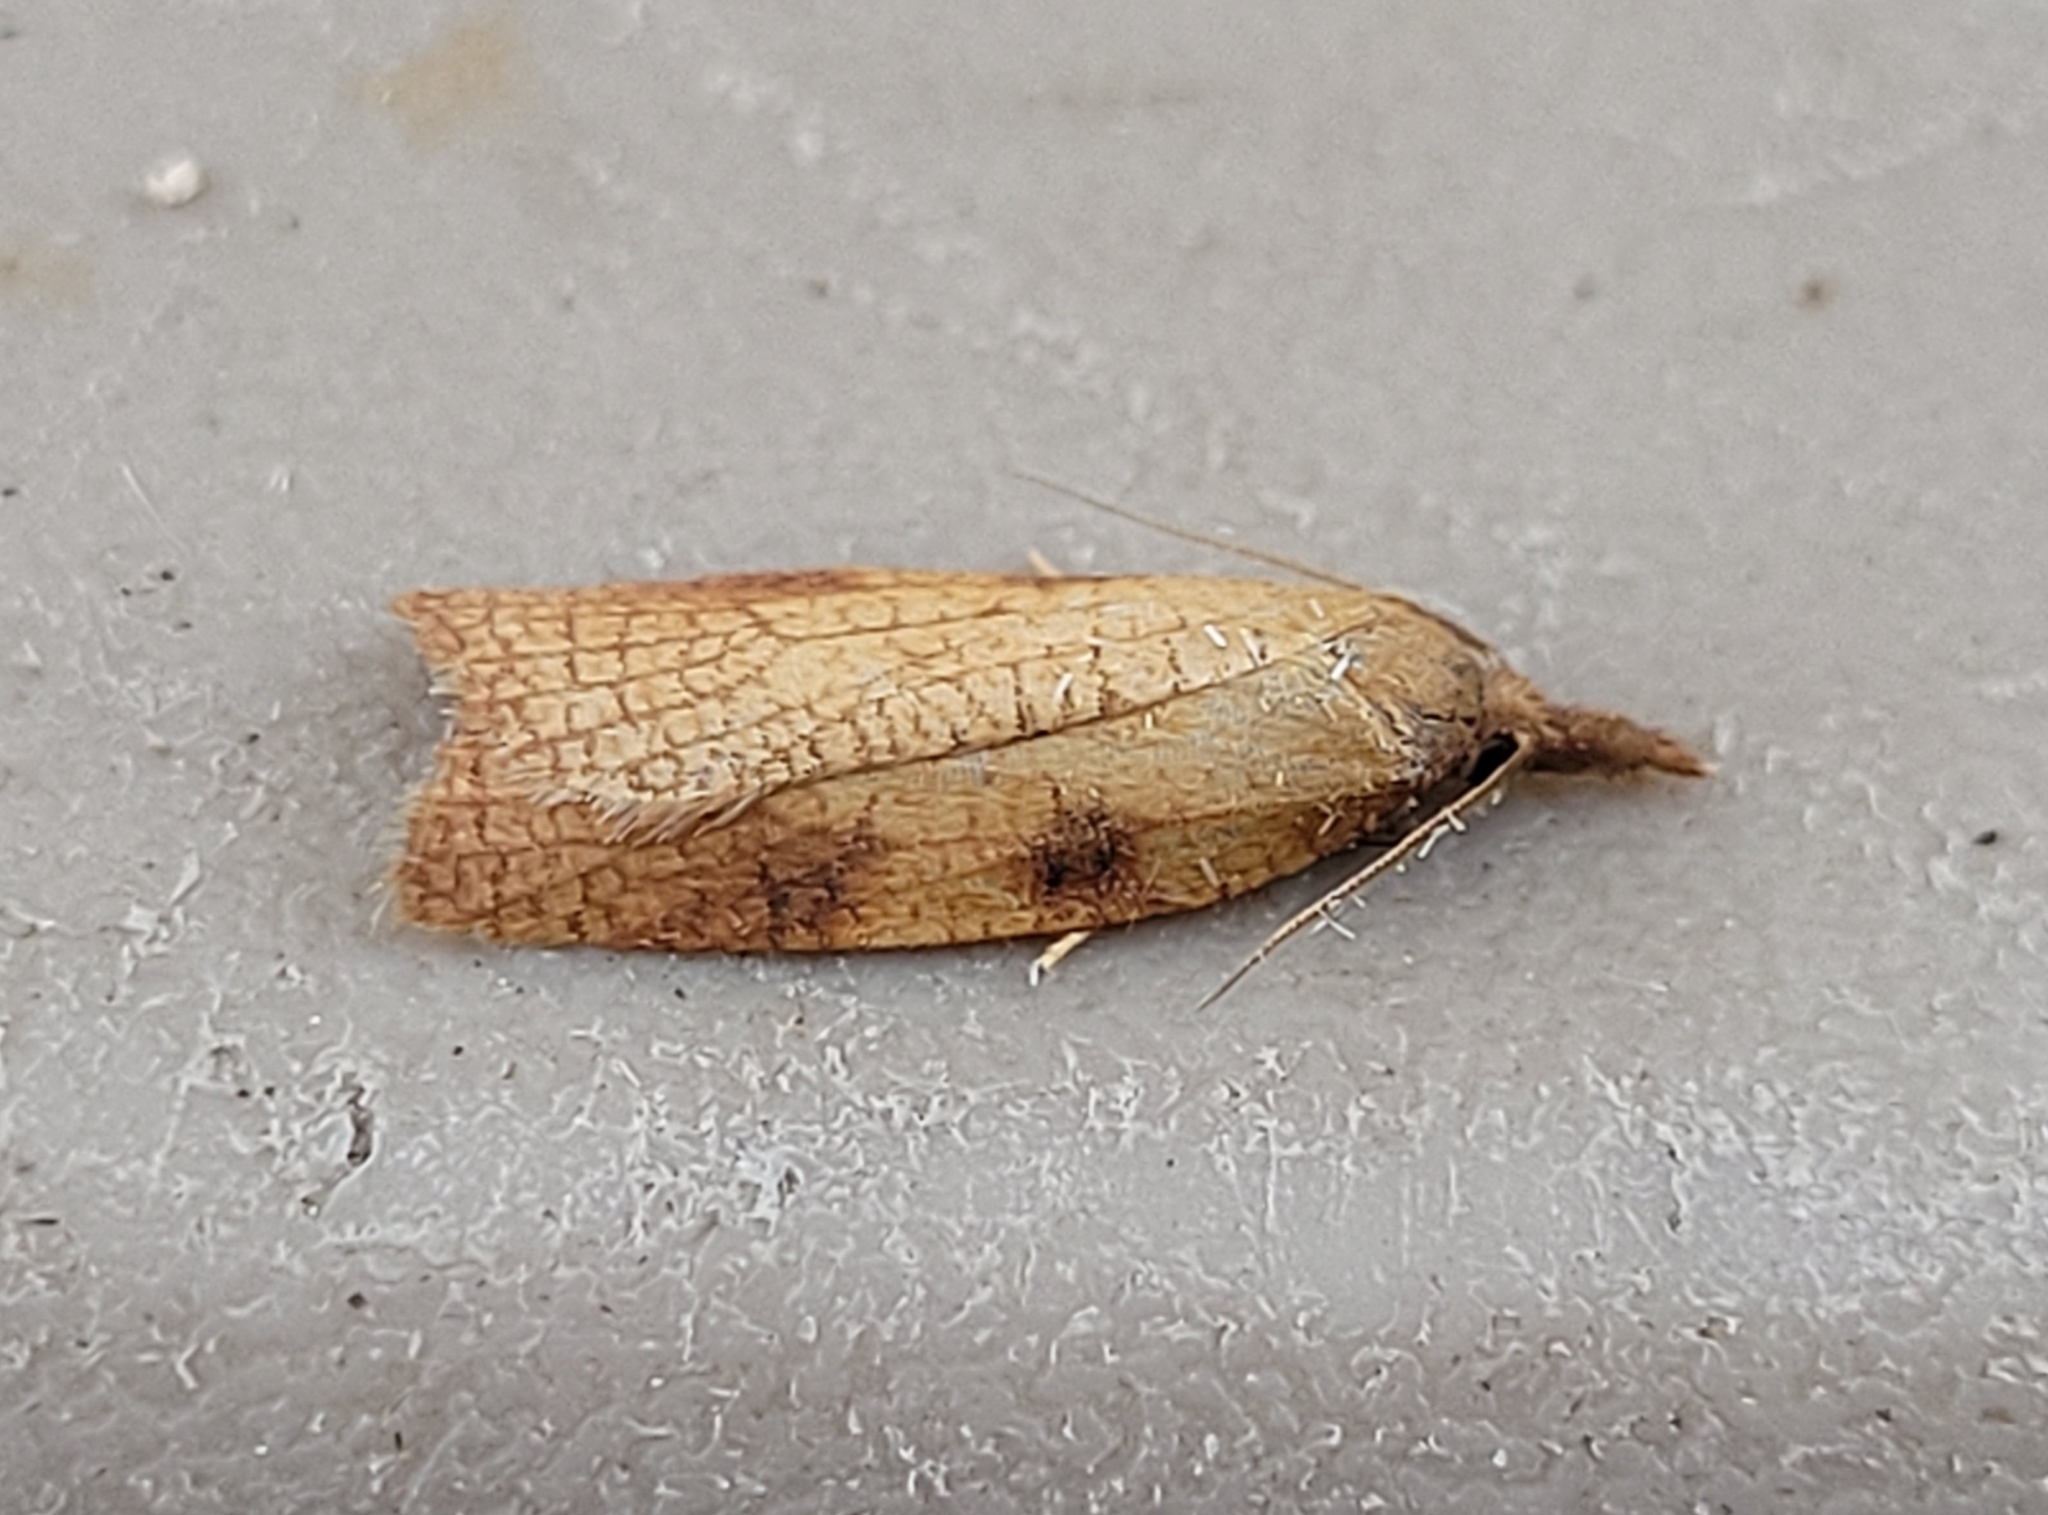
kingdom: Animalia
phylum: Arthropoda
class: Insecta
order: Lepidoptera
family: Tortricidae
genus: Cenopis
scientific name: Cenopis directana
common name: Chokecherry leafroller moth
